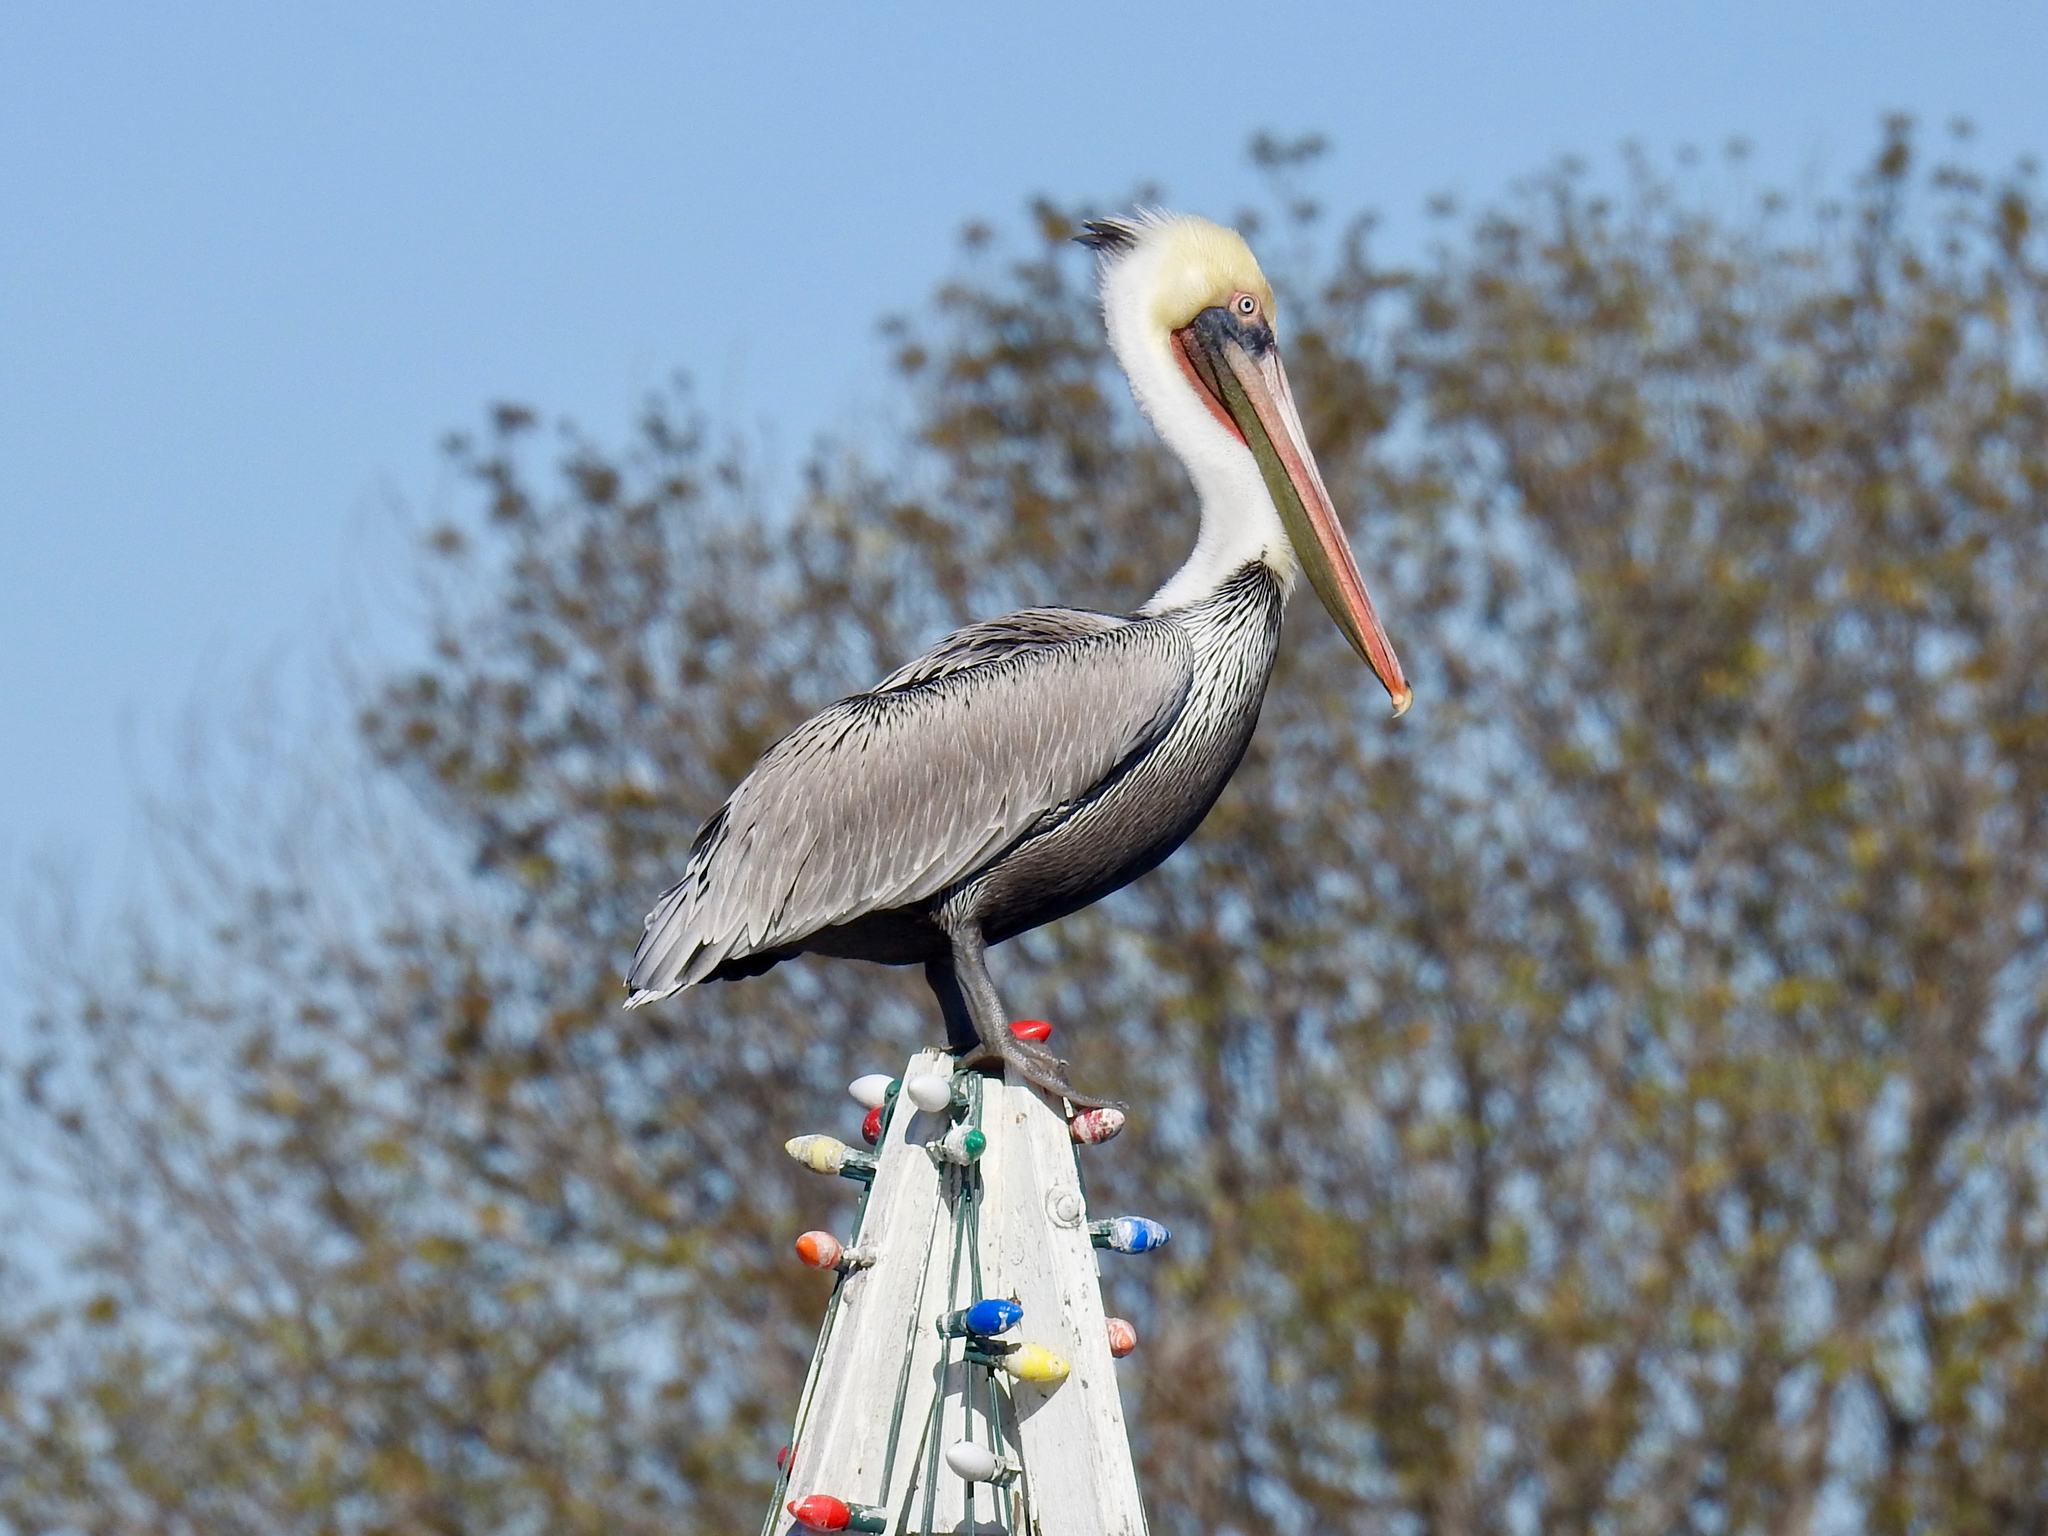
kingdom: Animalia
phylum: Chordata
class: Aves
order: Pelecaniformes
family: Pelecanidae
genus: Pelecanus
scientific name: Pelecanus occidentalis
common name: Brown pelican
